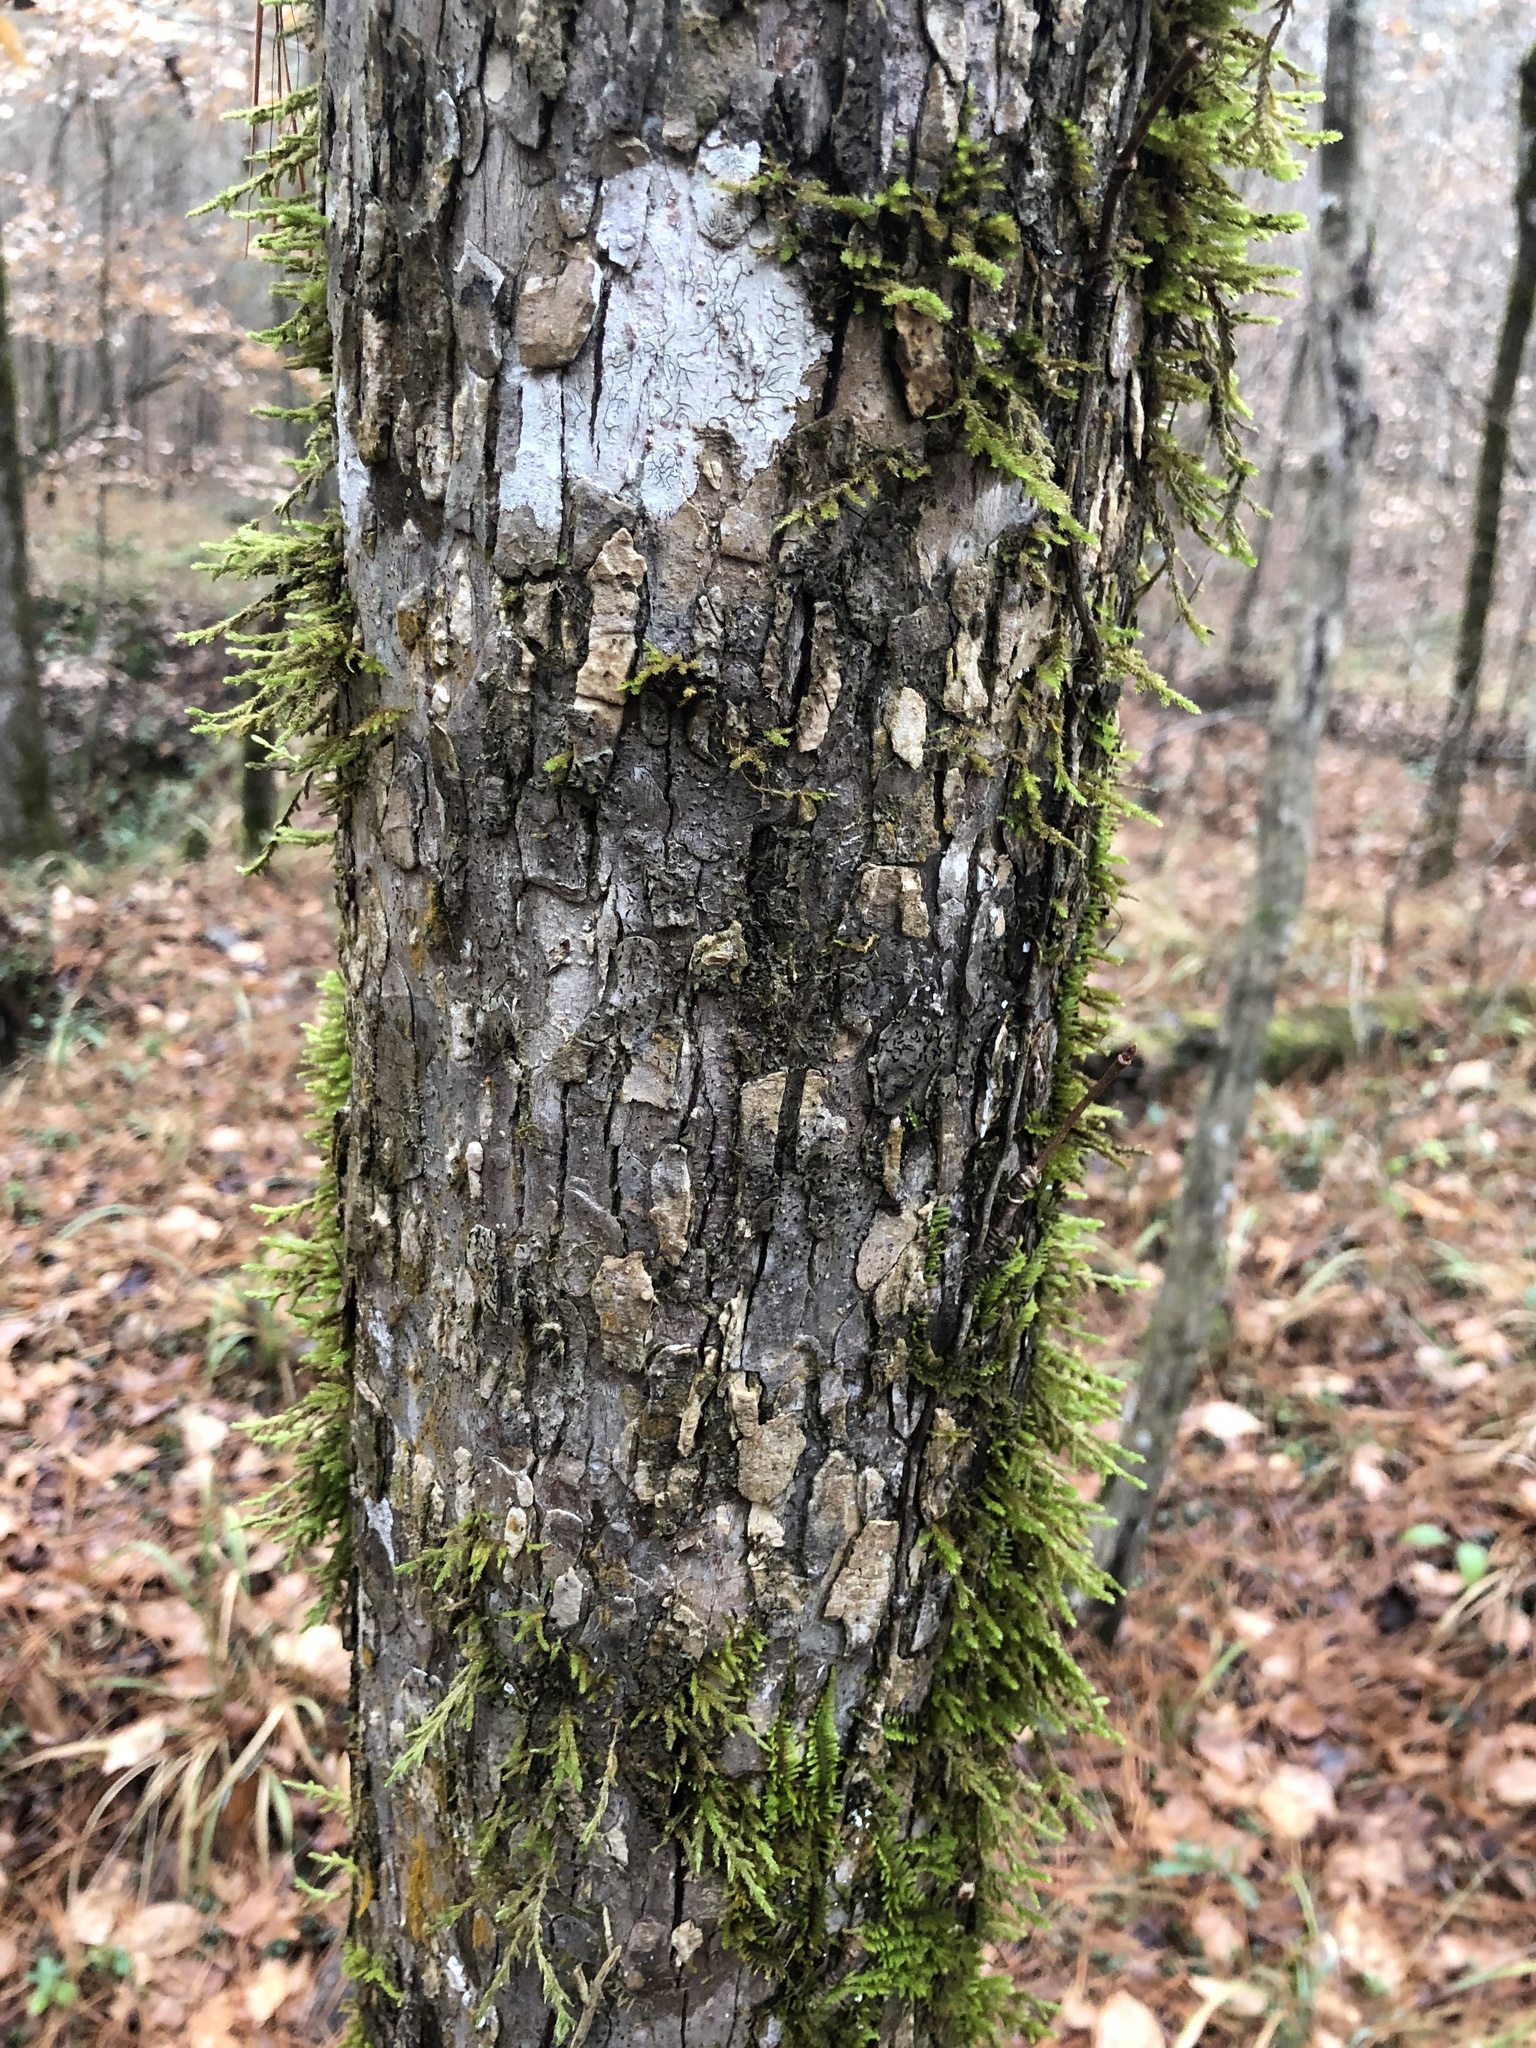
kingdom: Plantae
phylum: Tracheophyta
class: Magnoliopsida
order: Rosales
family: Ulmaceae
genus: Ulmus
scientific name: Ulmus alata
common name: Winged elm
